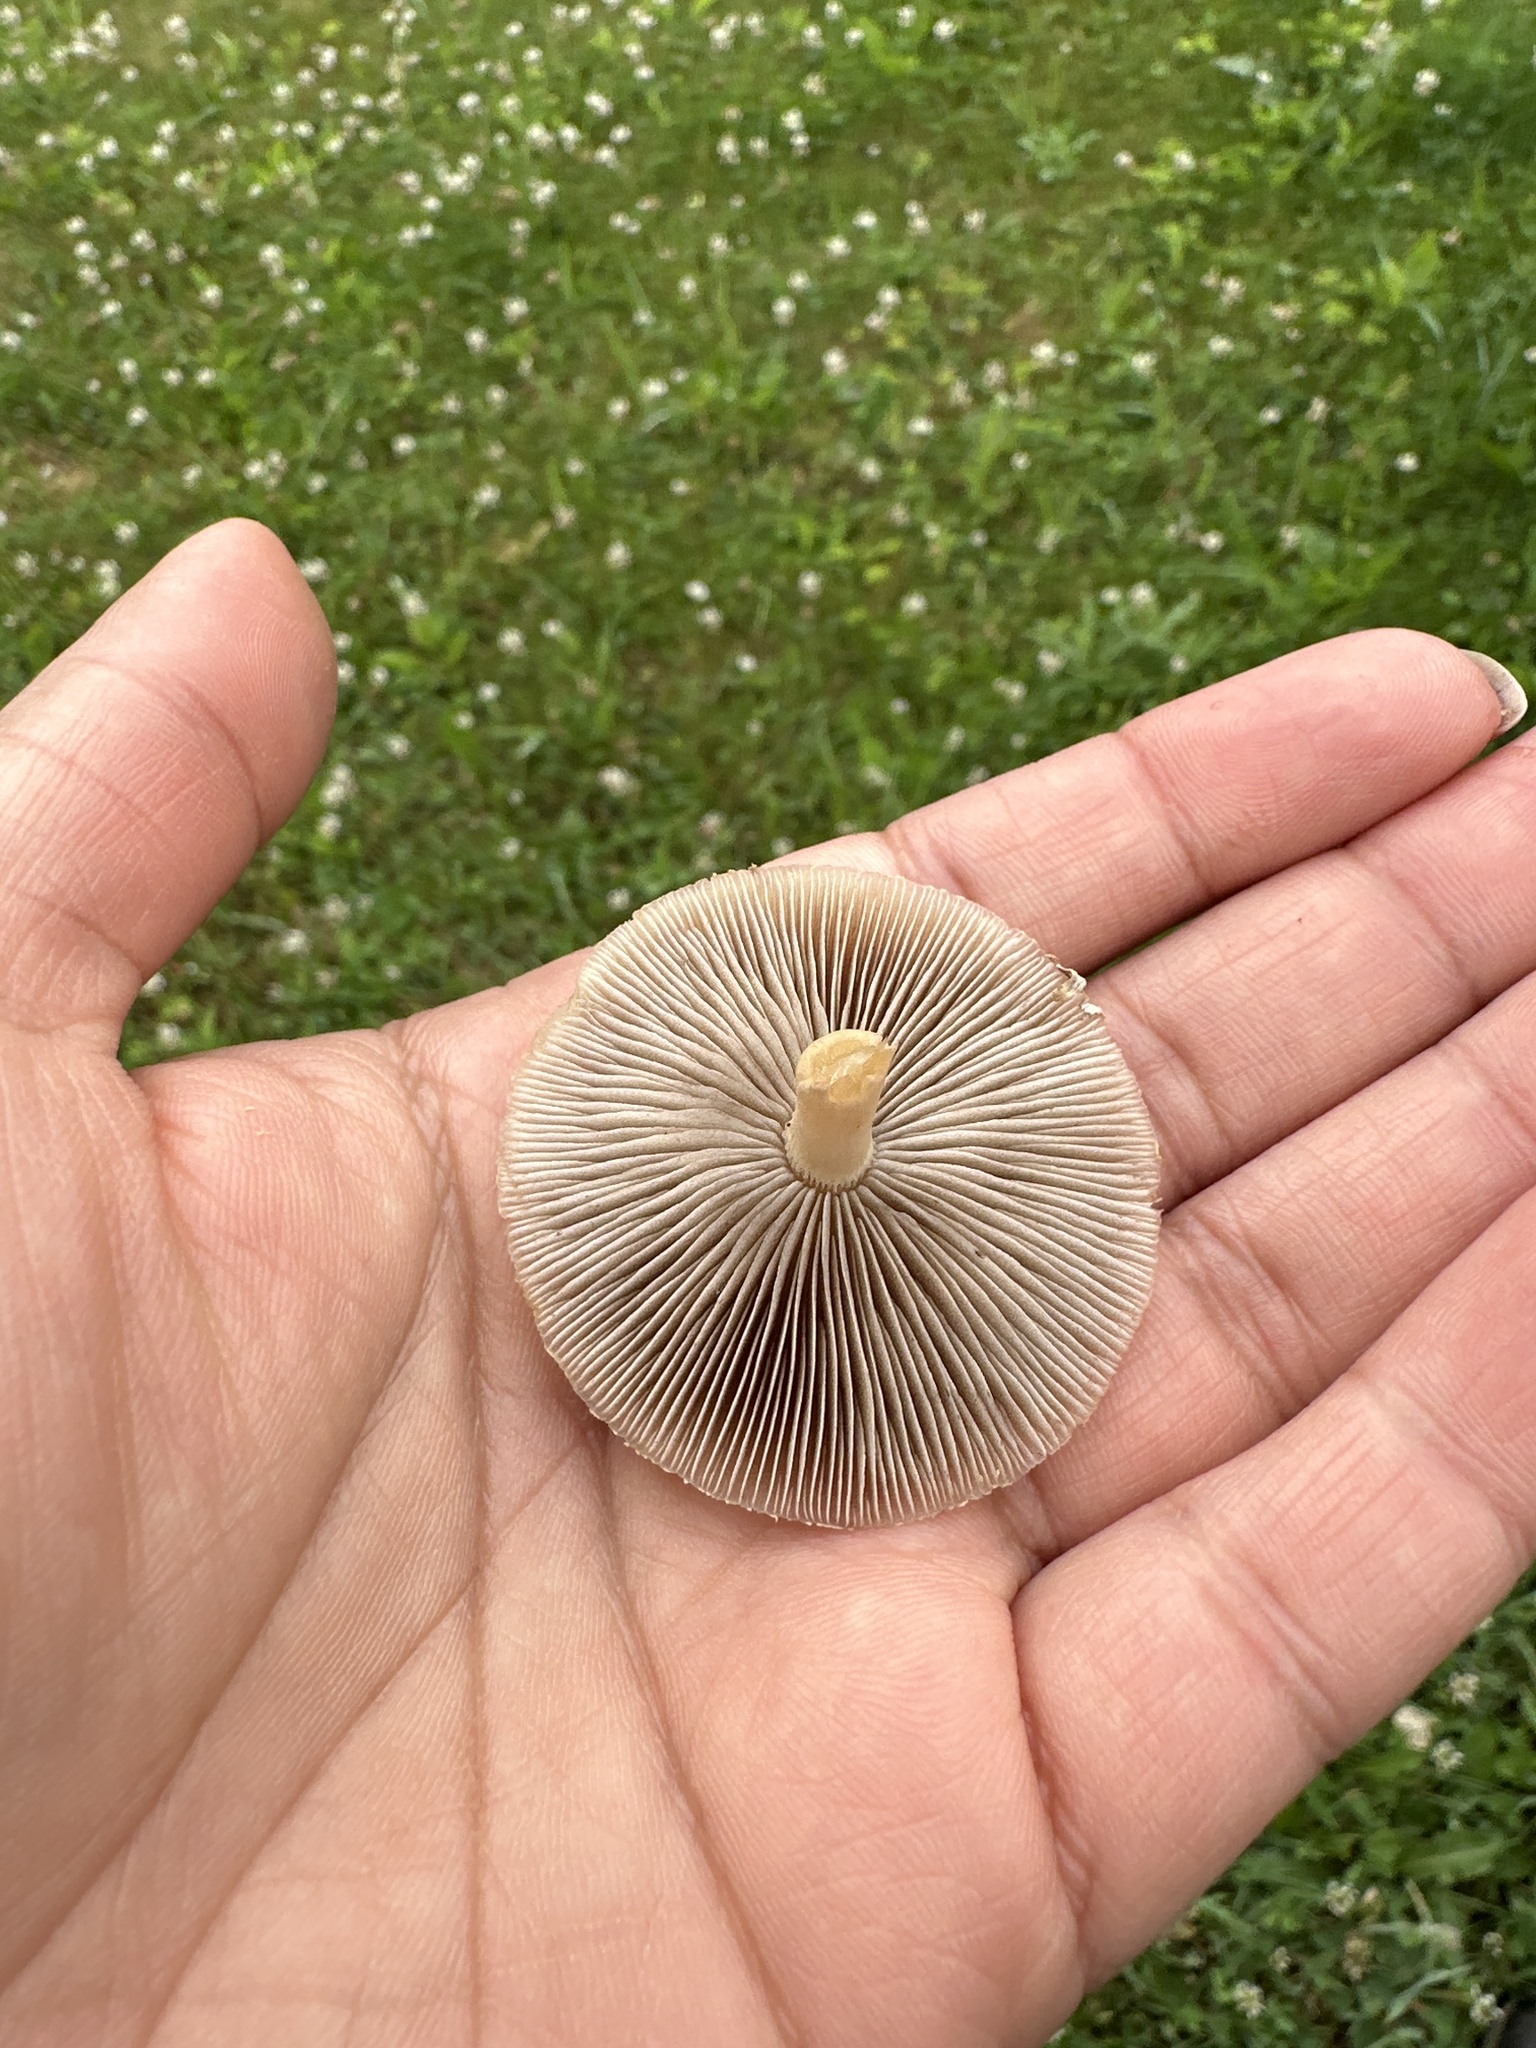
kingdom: Fungi
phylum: Basidiomycota
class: Agaricomycetes
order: Agaricales
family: Strophariaceae
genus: Agrocybe
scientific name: Agrocybe praecox
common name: Spring fieldcap
